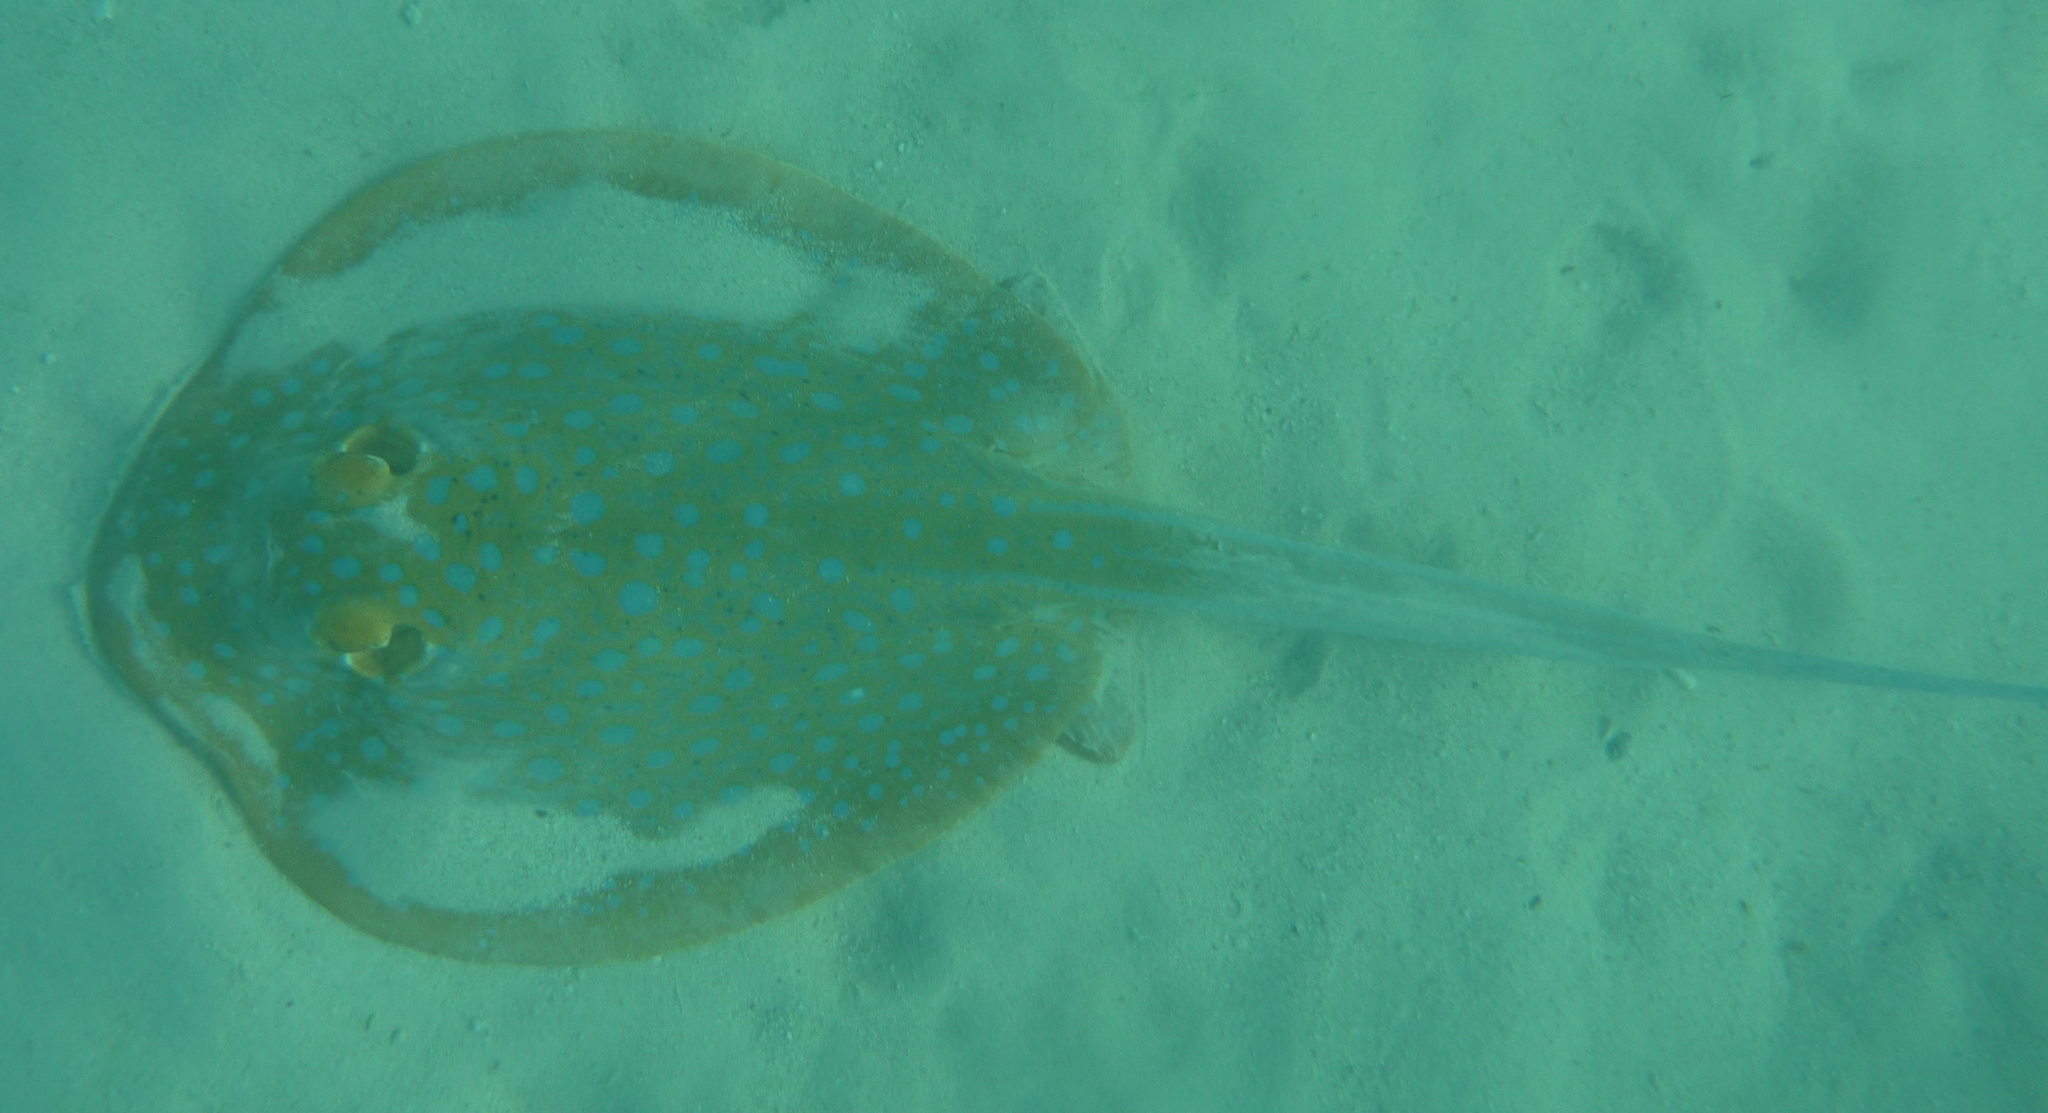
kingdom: Animalia
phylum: Chordata
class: Elasmobranchii
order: Myliobatiformes
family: Dasyatidae
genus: Taeniura
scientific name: Taeniura lymma
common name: Bluespotted ribbontail ray
